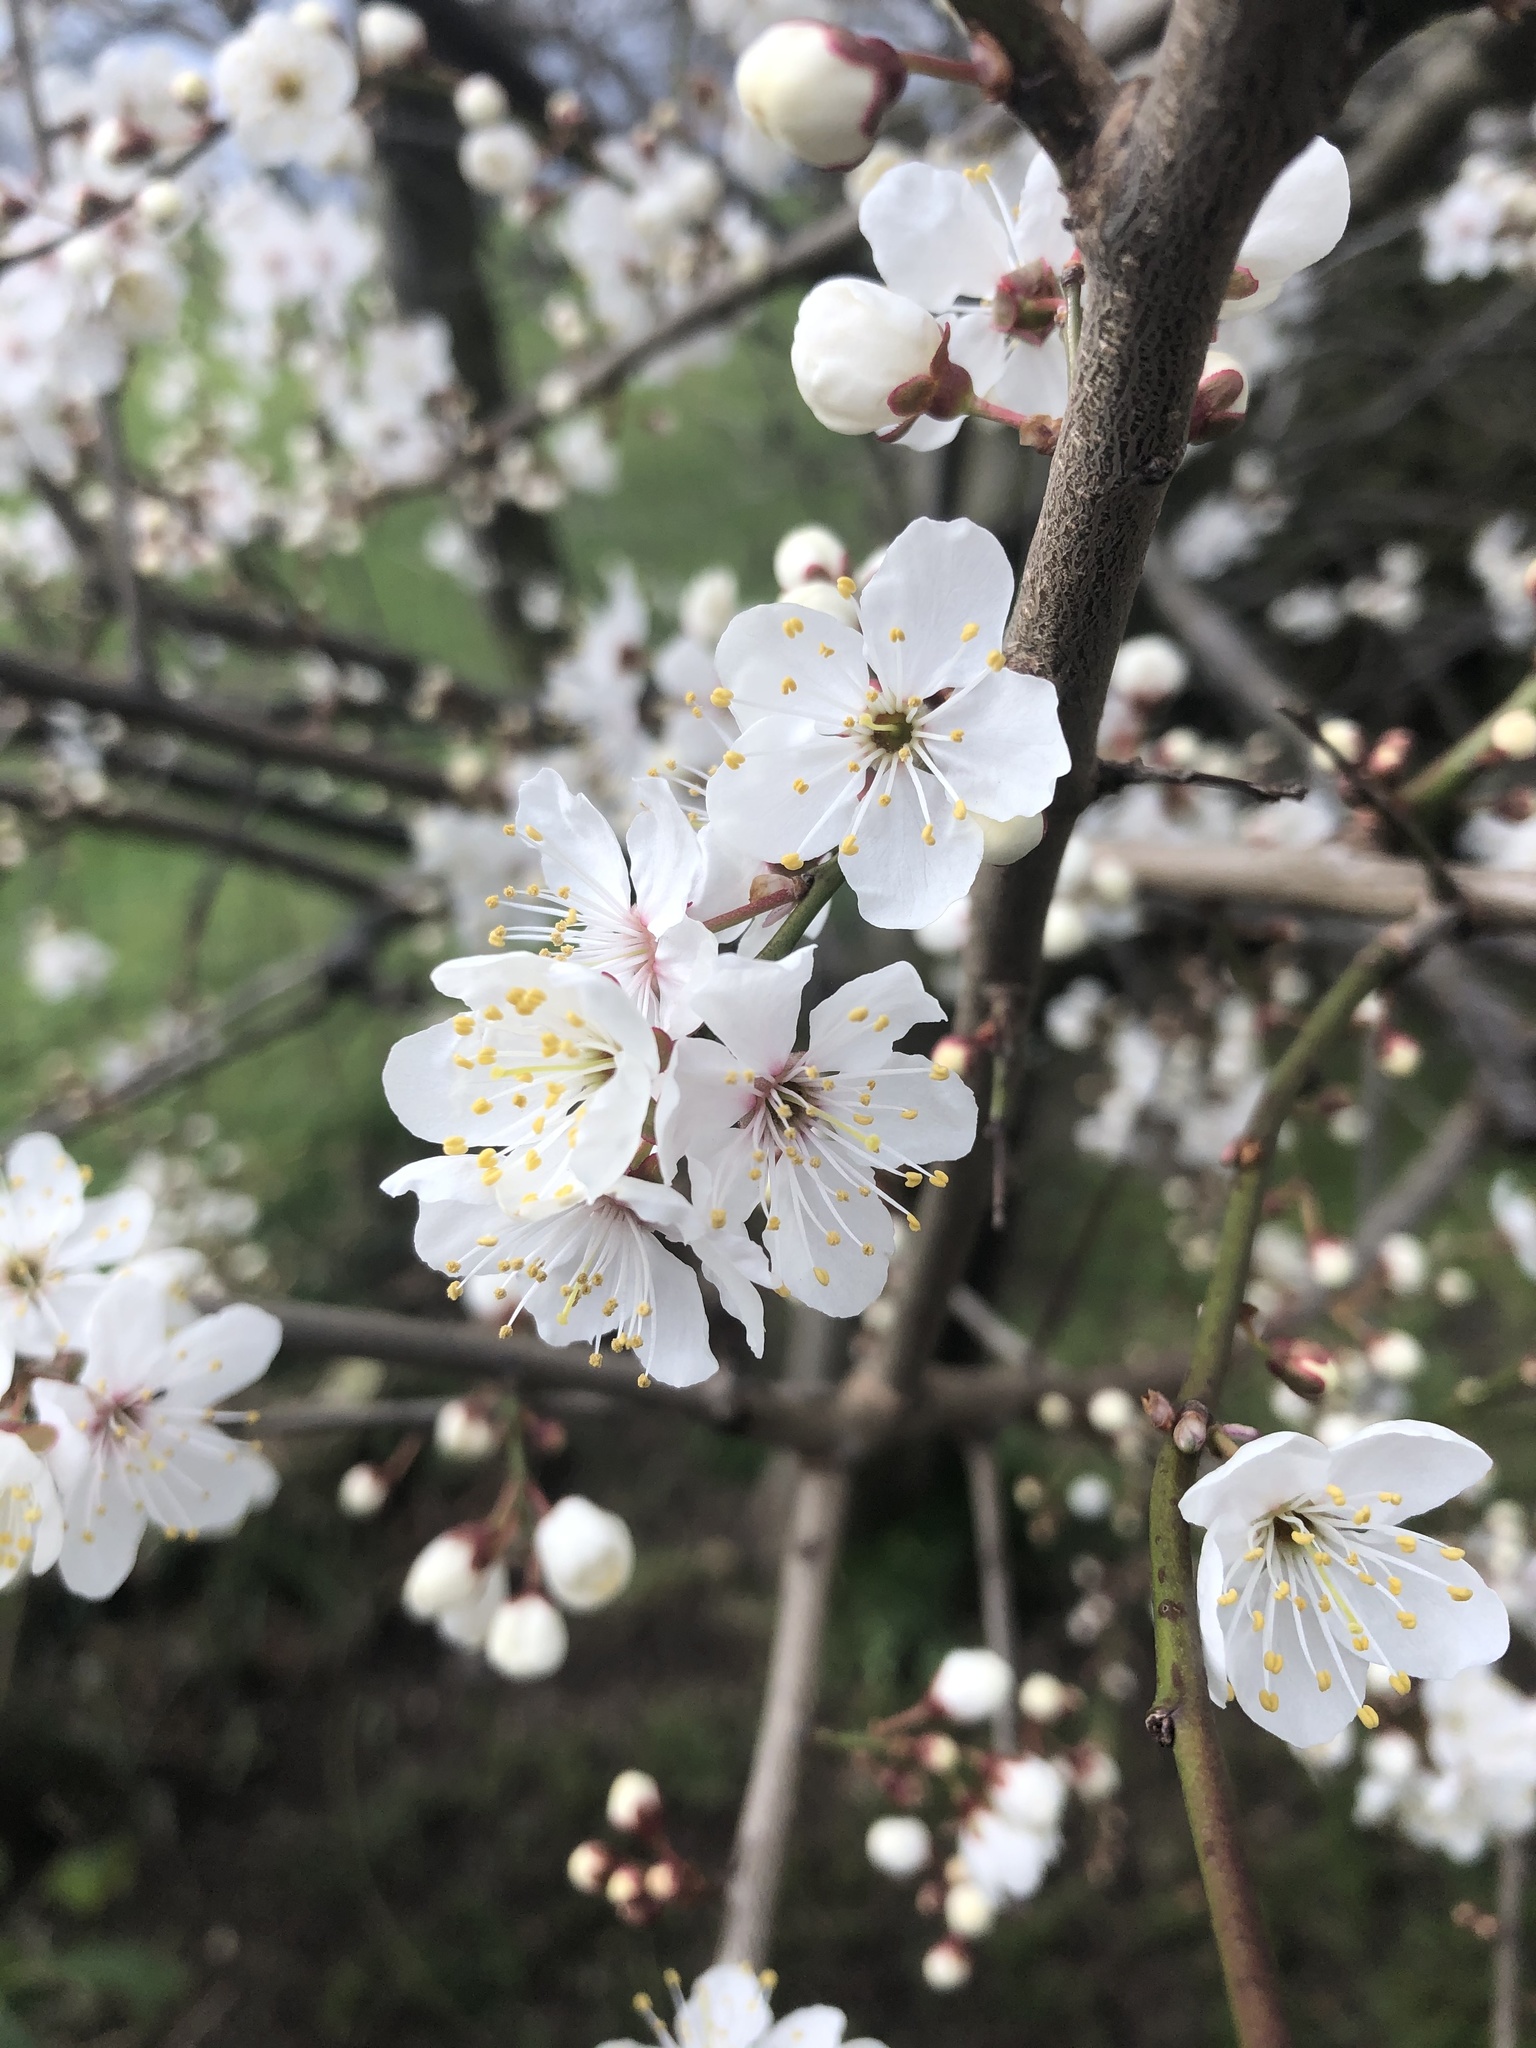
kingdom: Plantae
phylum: Tracheophyta
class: Magnoliopsida
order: Rosales
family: Rosaceae
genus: Prunus
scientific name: Prunus cerasifera
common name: Cherry plum
